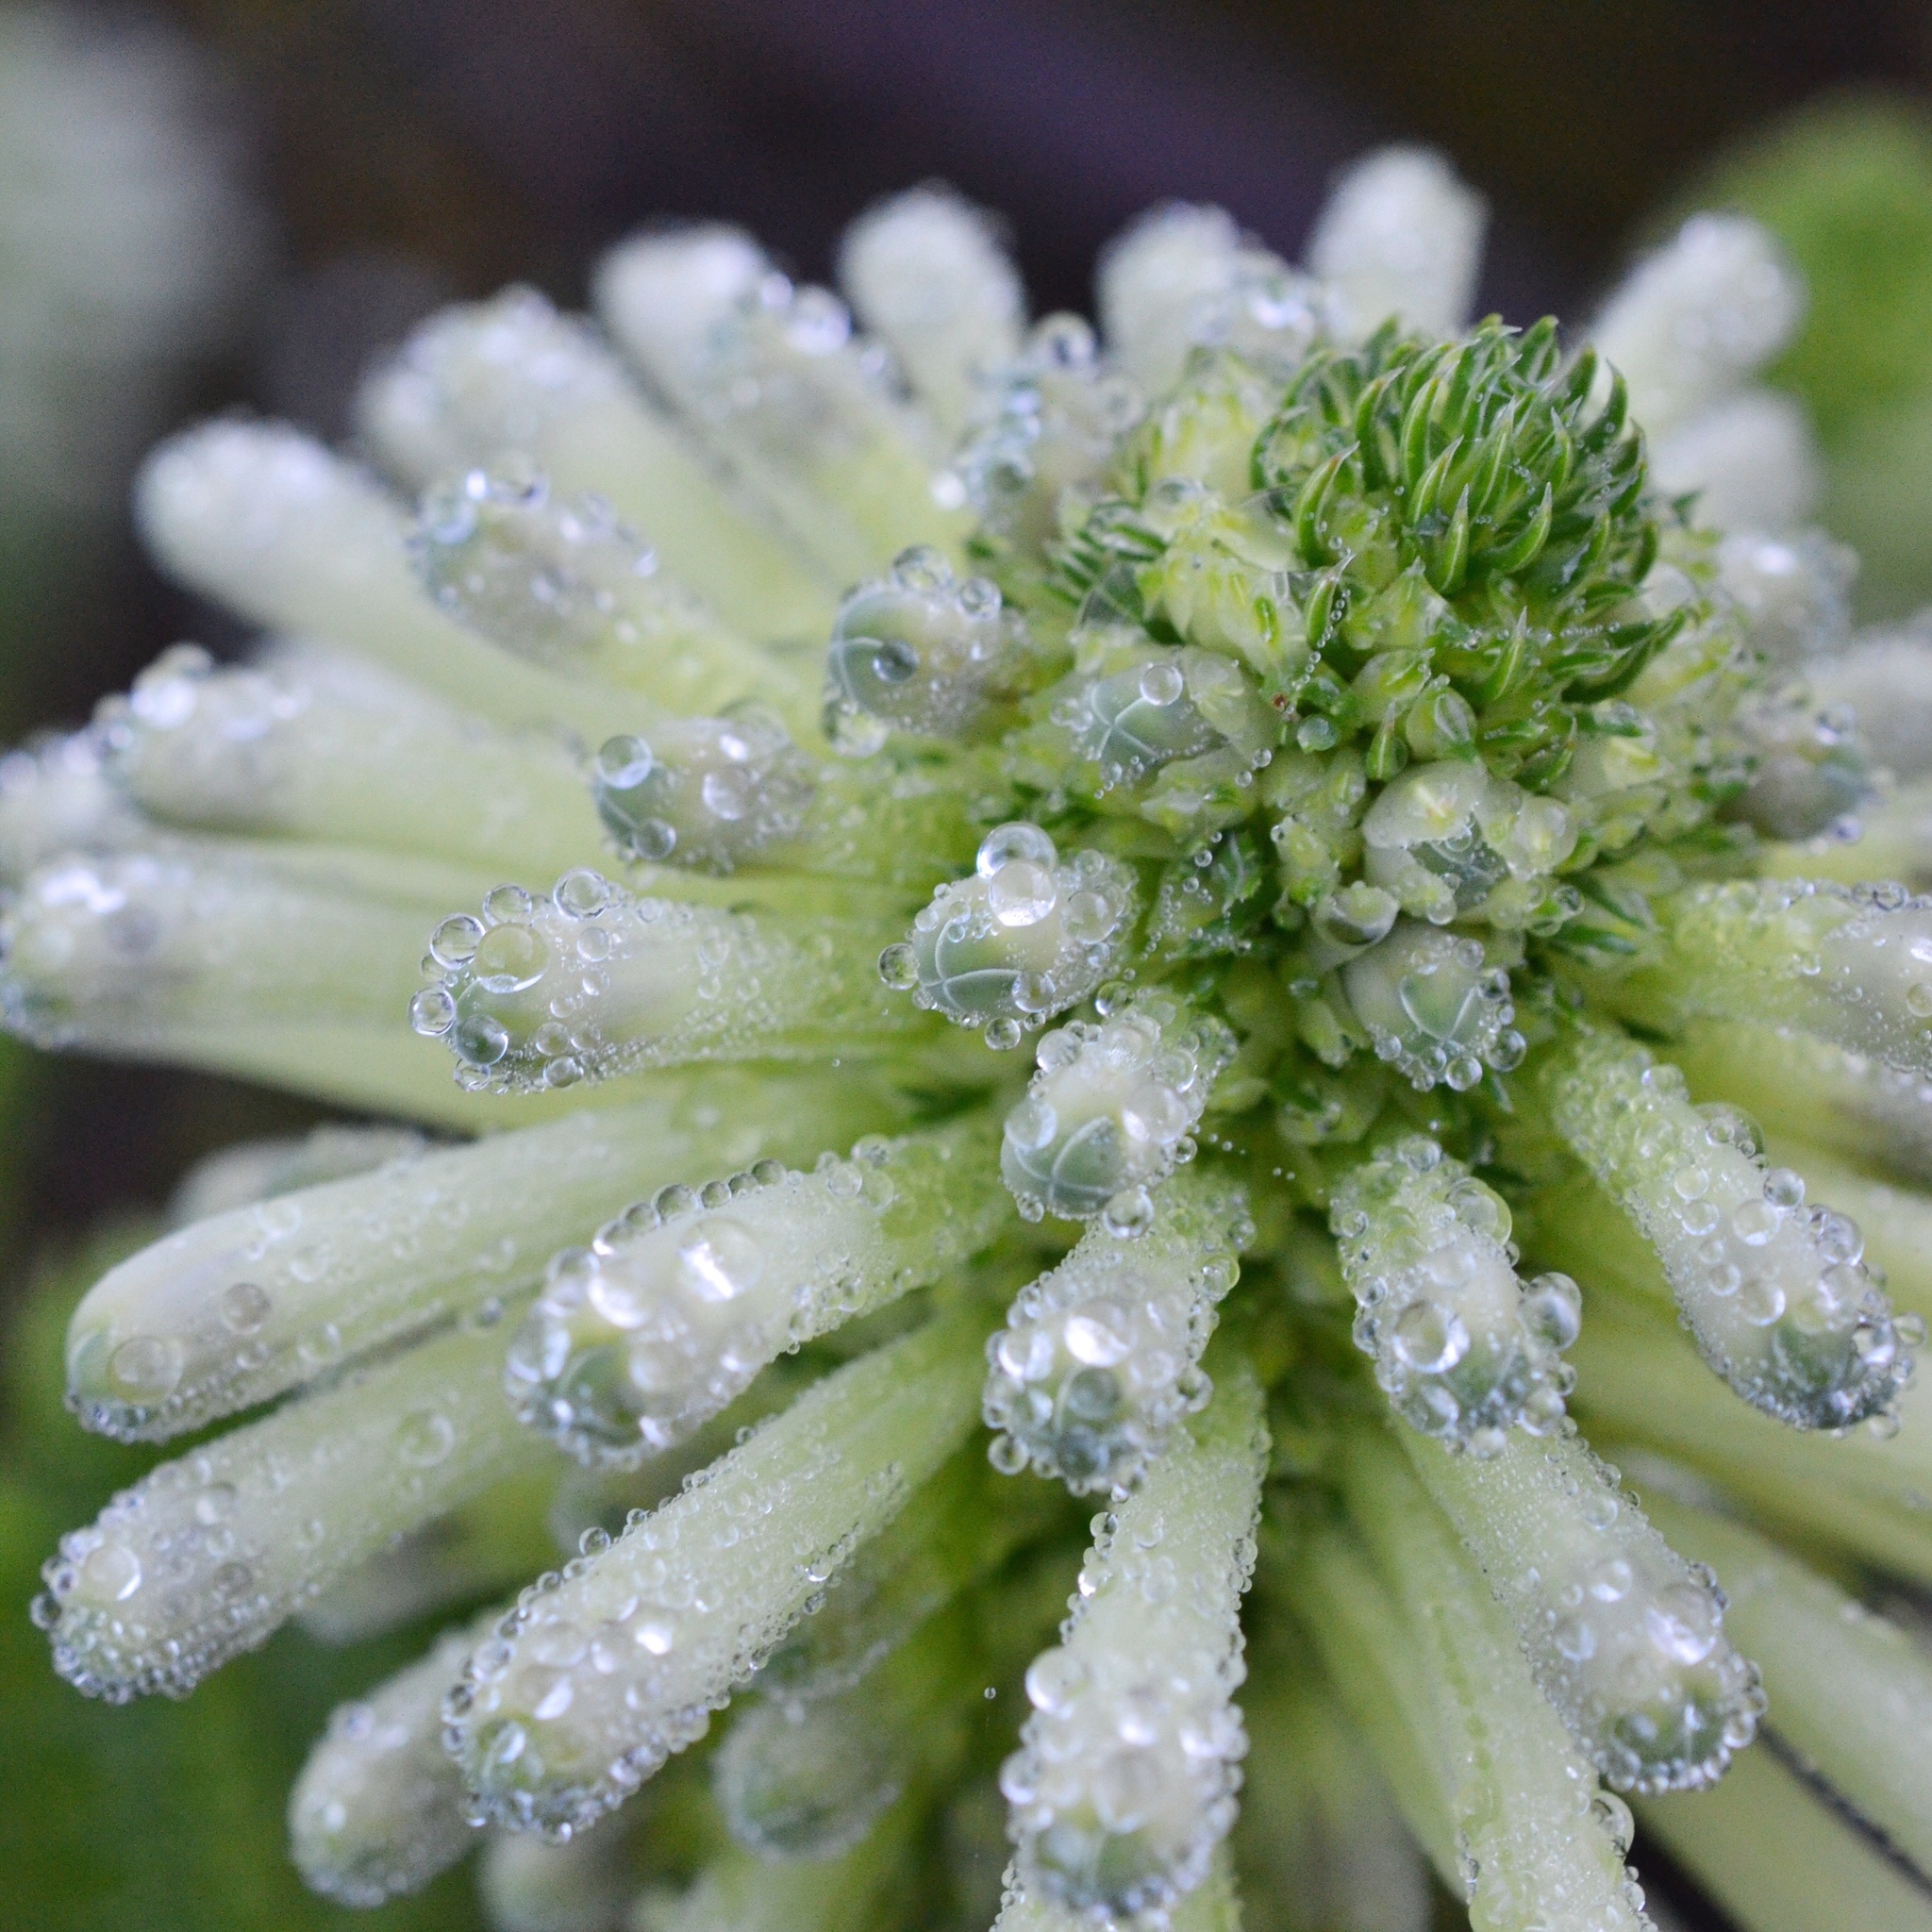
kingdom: Plantae
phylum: Tracheophyta
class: Magnoliopsida
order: Ericales
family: Ericaceae
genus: Erica
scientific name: Erica sessiliflora
